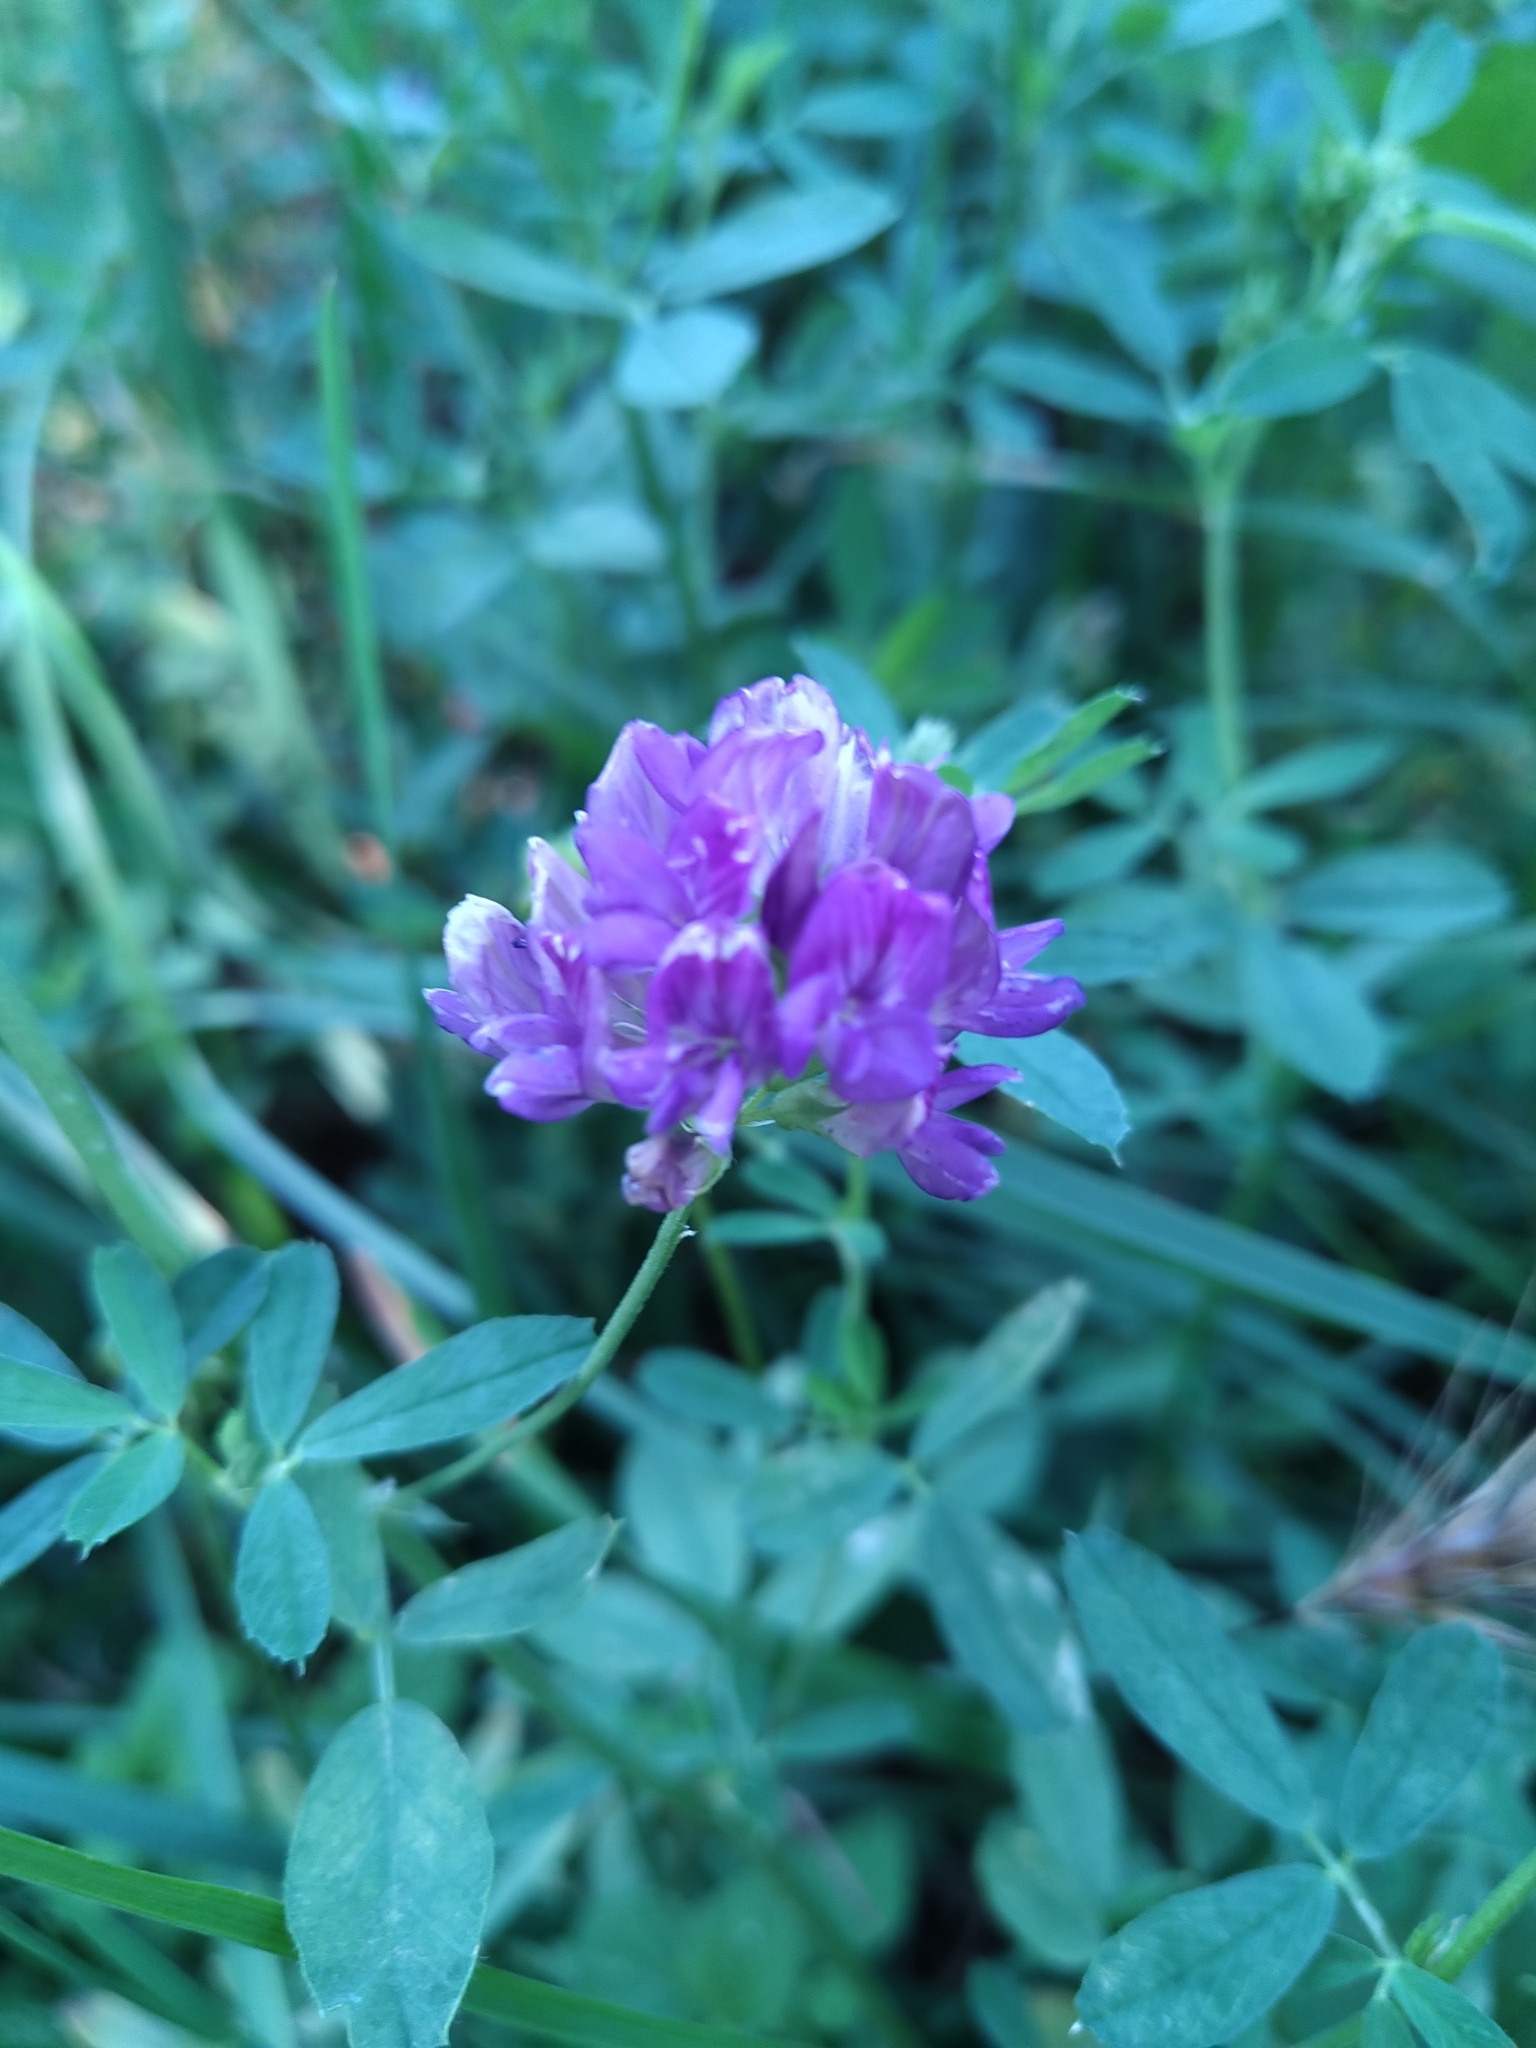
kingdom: Plantae
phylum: Tracheophyta
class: Magnoliopsida
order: Fabales
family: Fabaceae
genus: Medicago
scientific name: Medicago sativa
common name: Alfalfa
